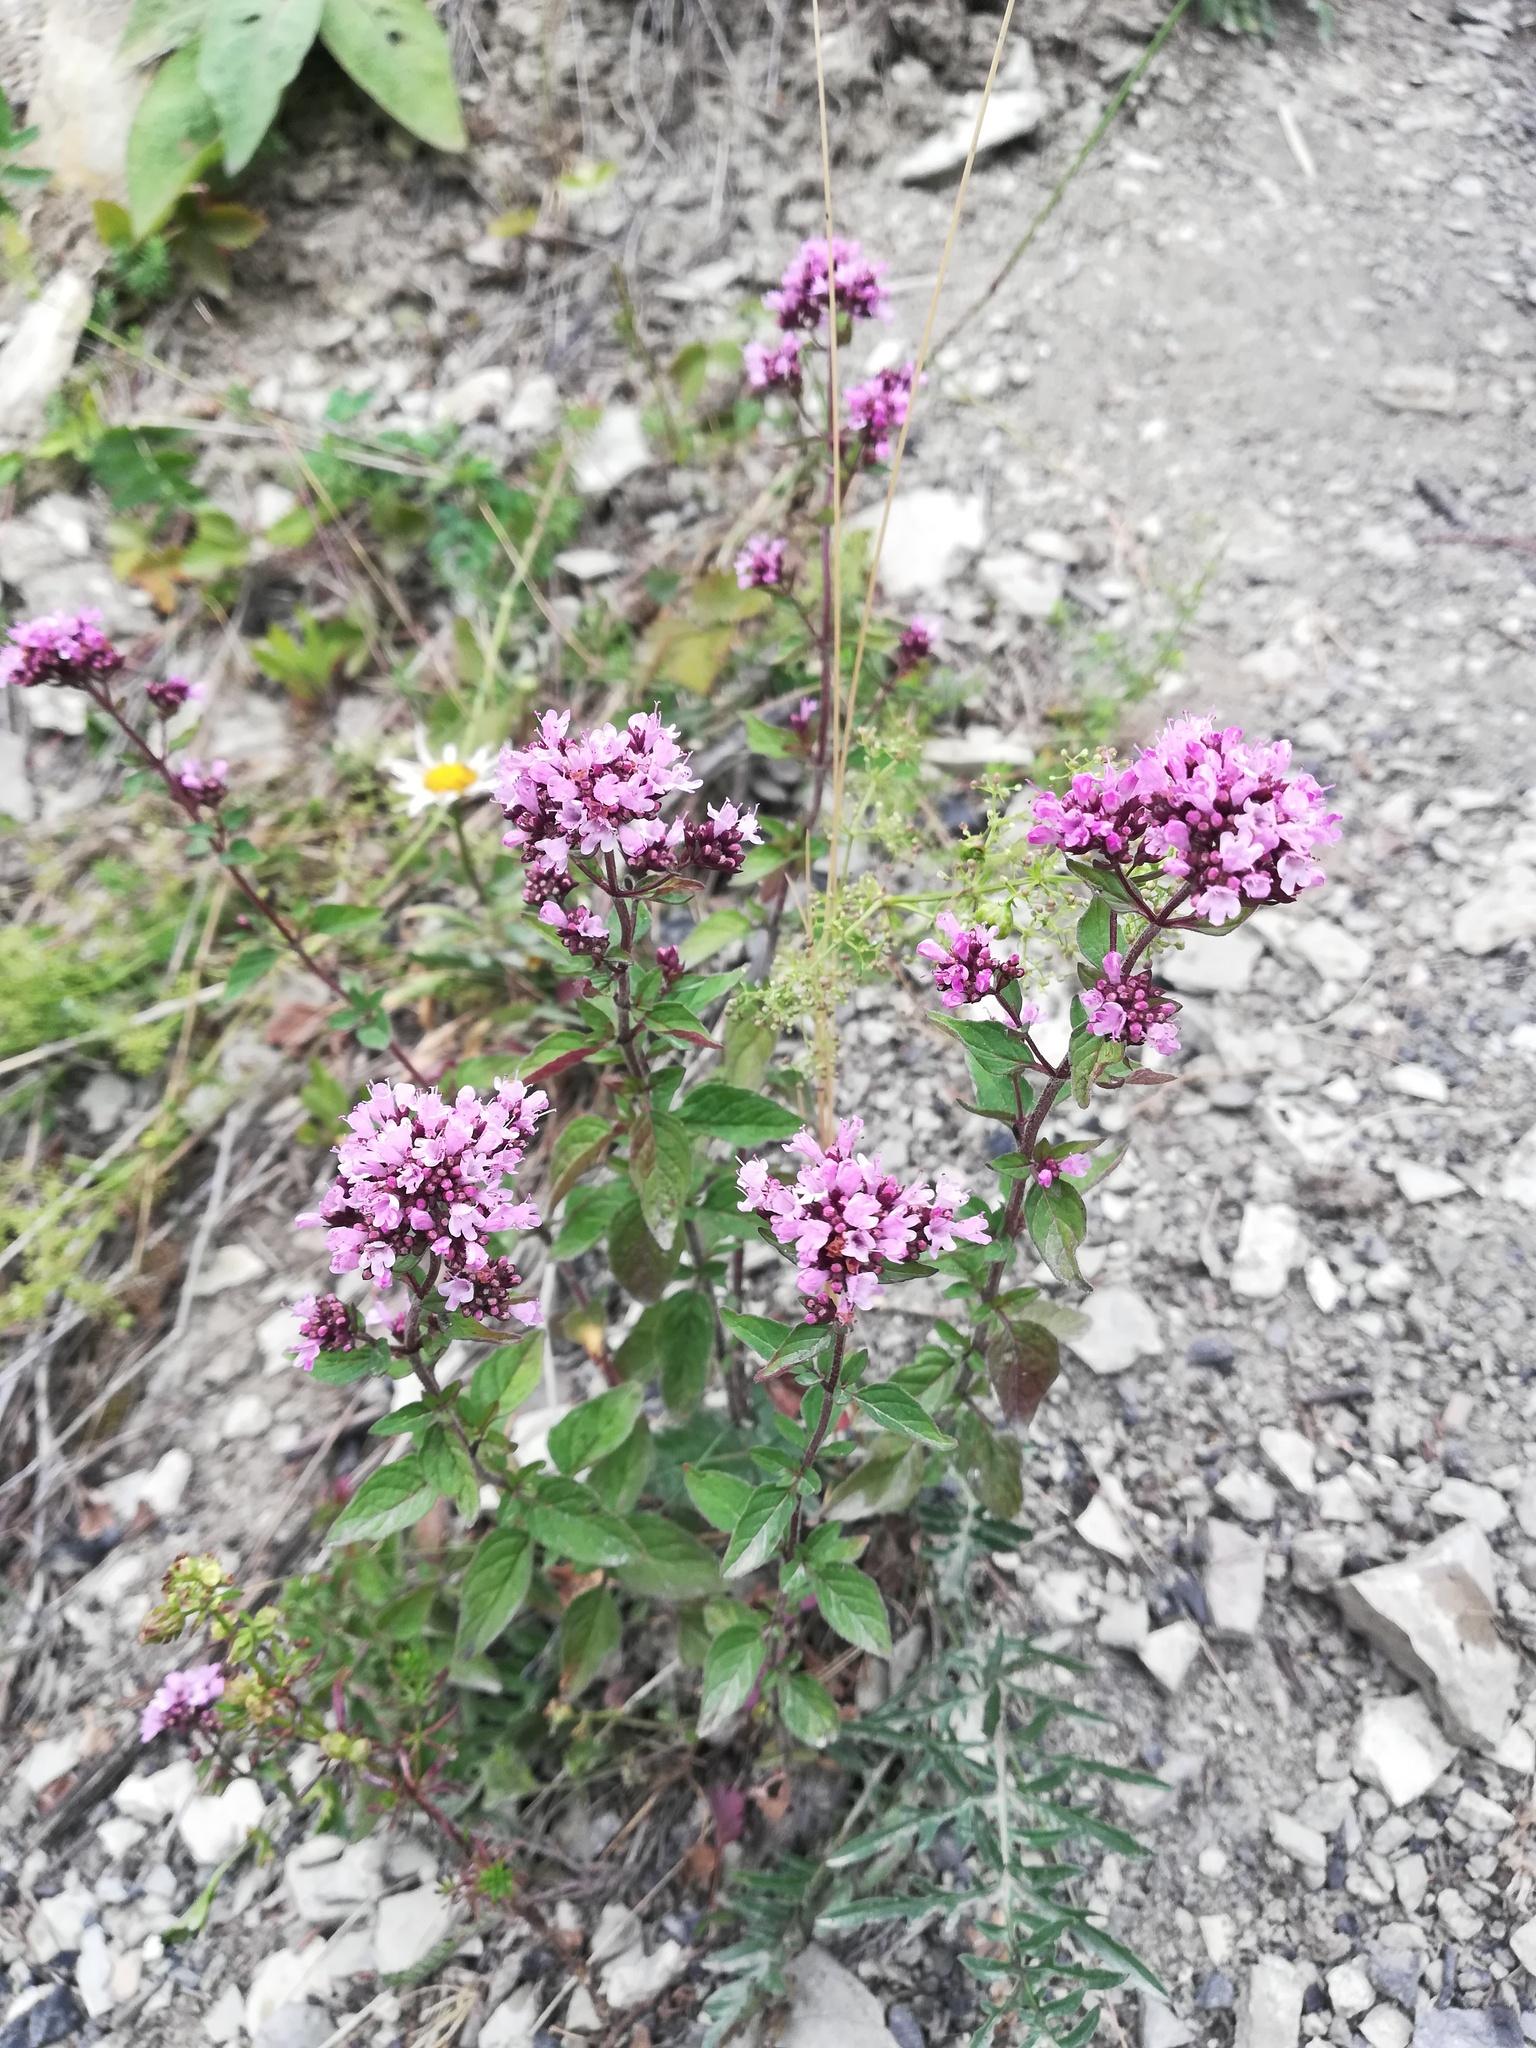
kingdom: Plantae
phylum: Tracheophyta
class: Magnoliopsida
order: Lamiales
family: Lamiaceae
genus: Origanum
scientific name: Origanum vulgare
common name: Wild marjoram
